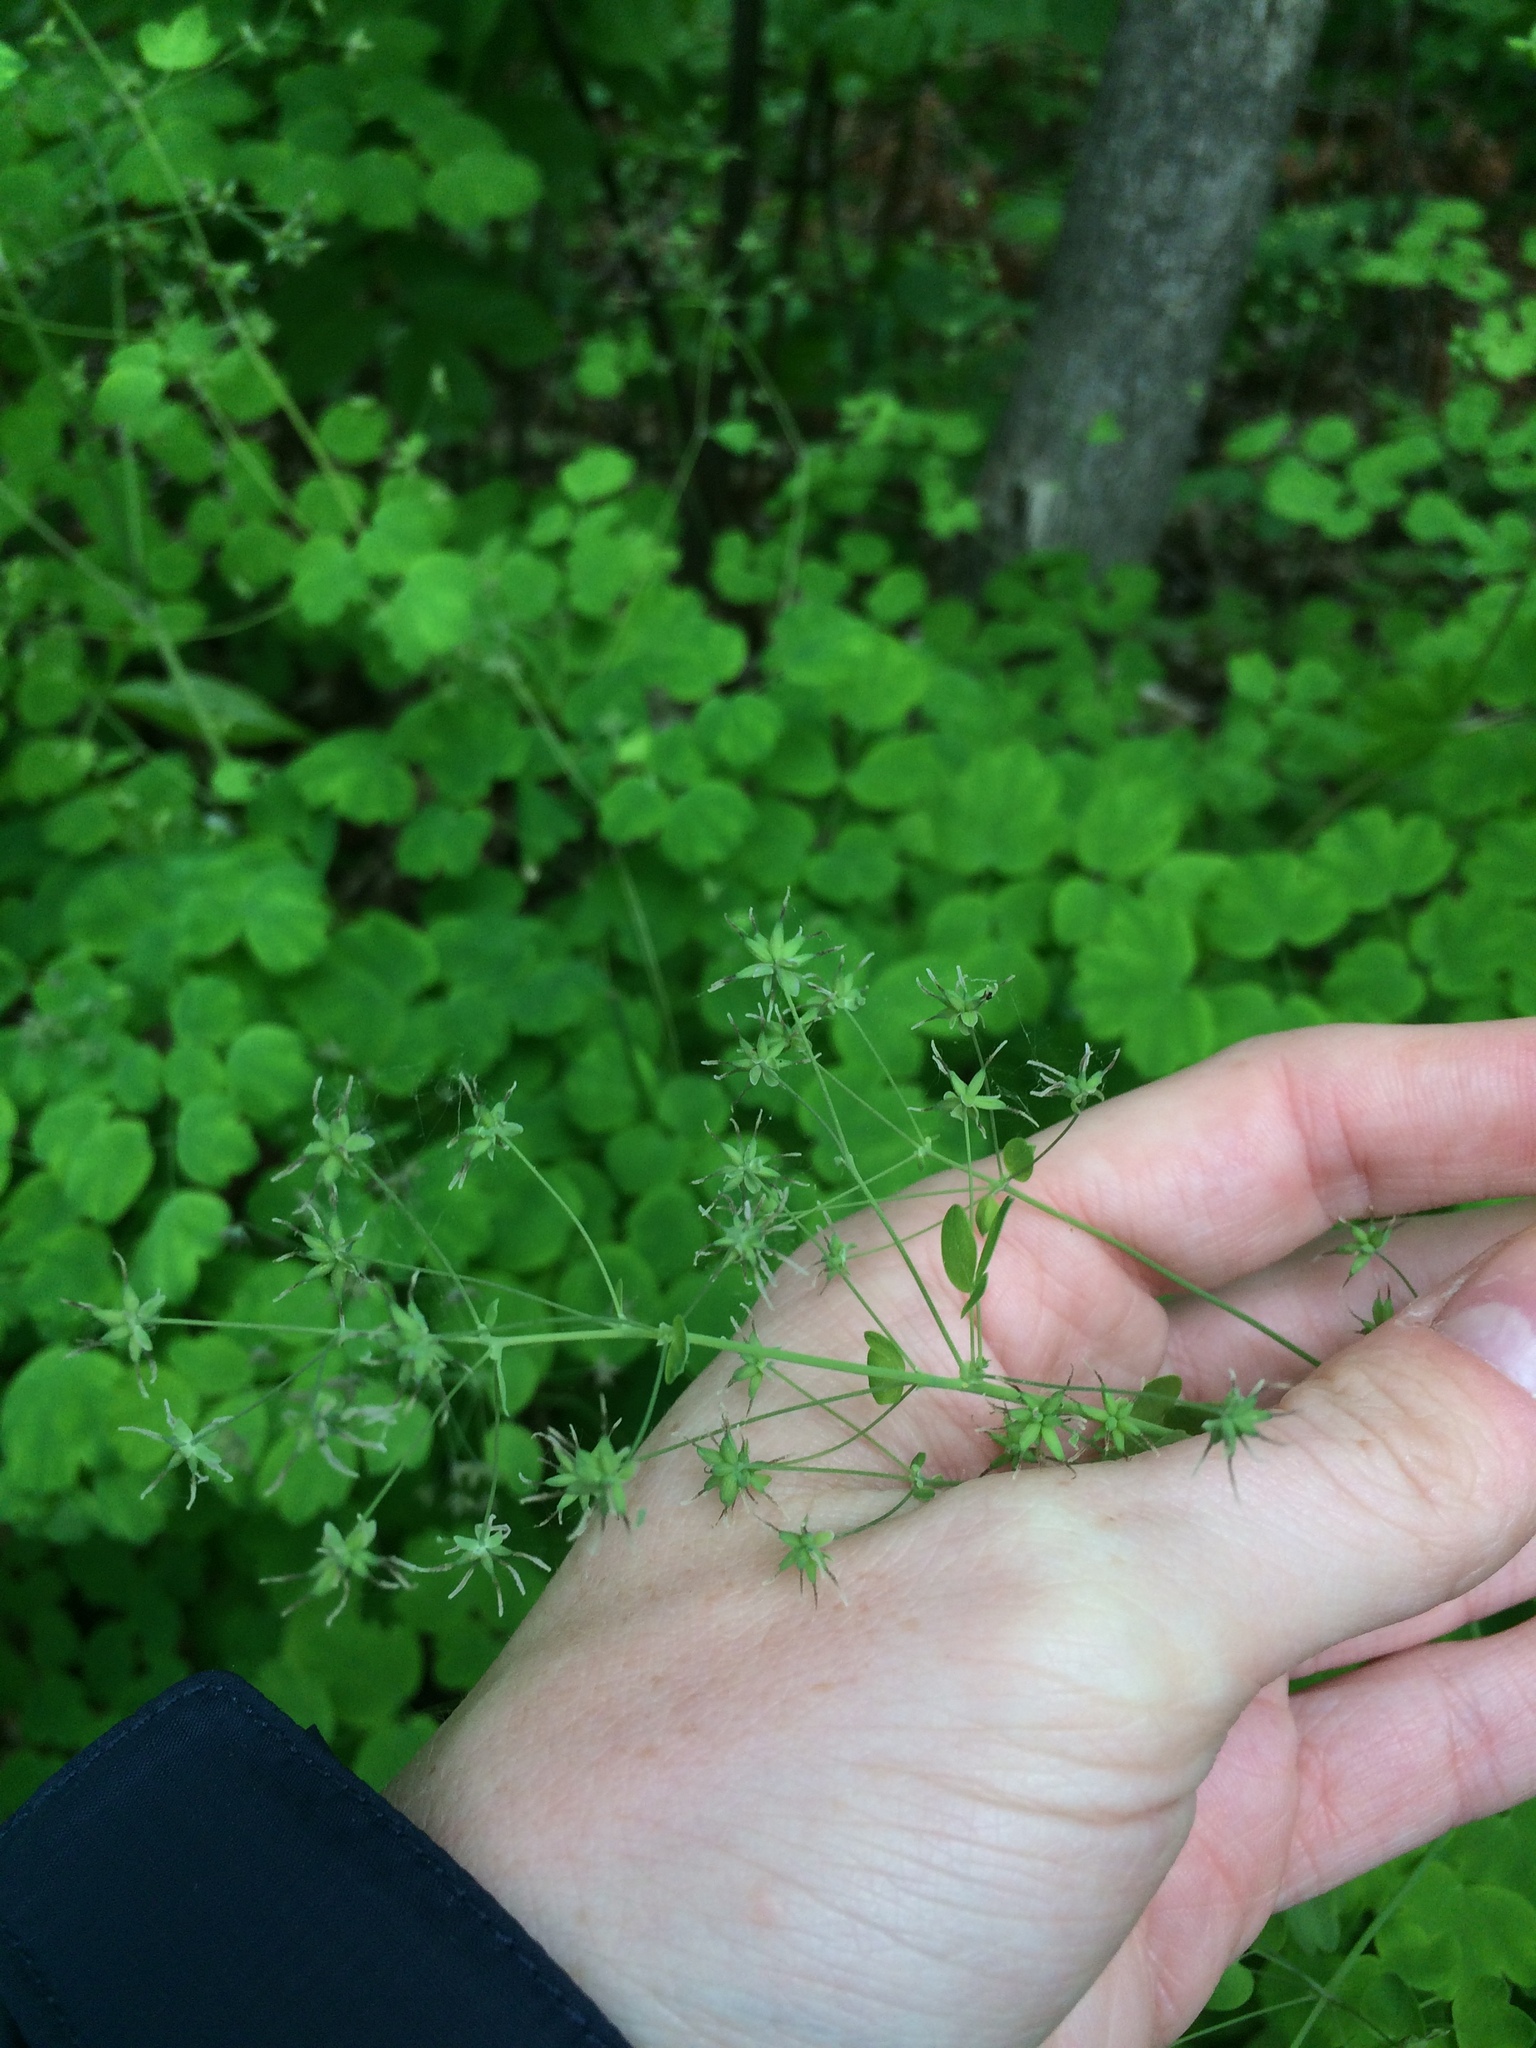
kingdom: Plantae
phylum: Tracheophyta
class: Magnoliopsida
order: Ranunculales
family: Ranunculaceae
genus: Thalictrum
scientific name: Thalictrum dioicum
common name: Early meadow-rue
